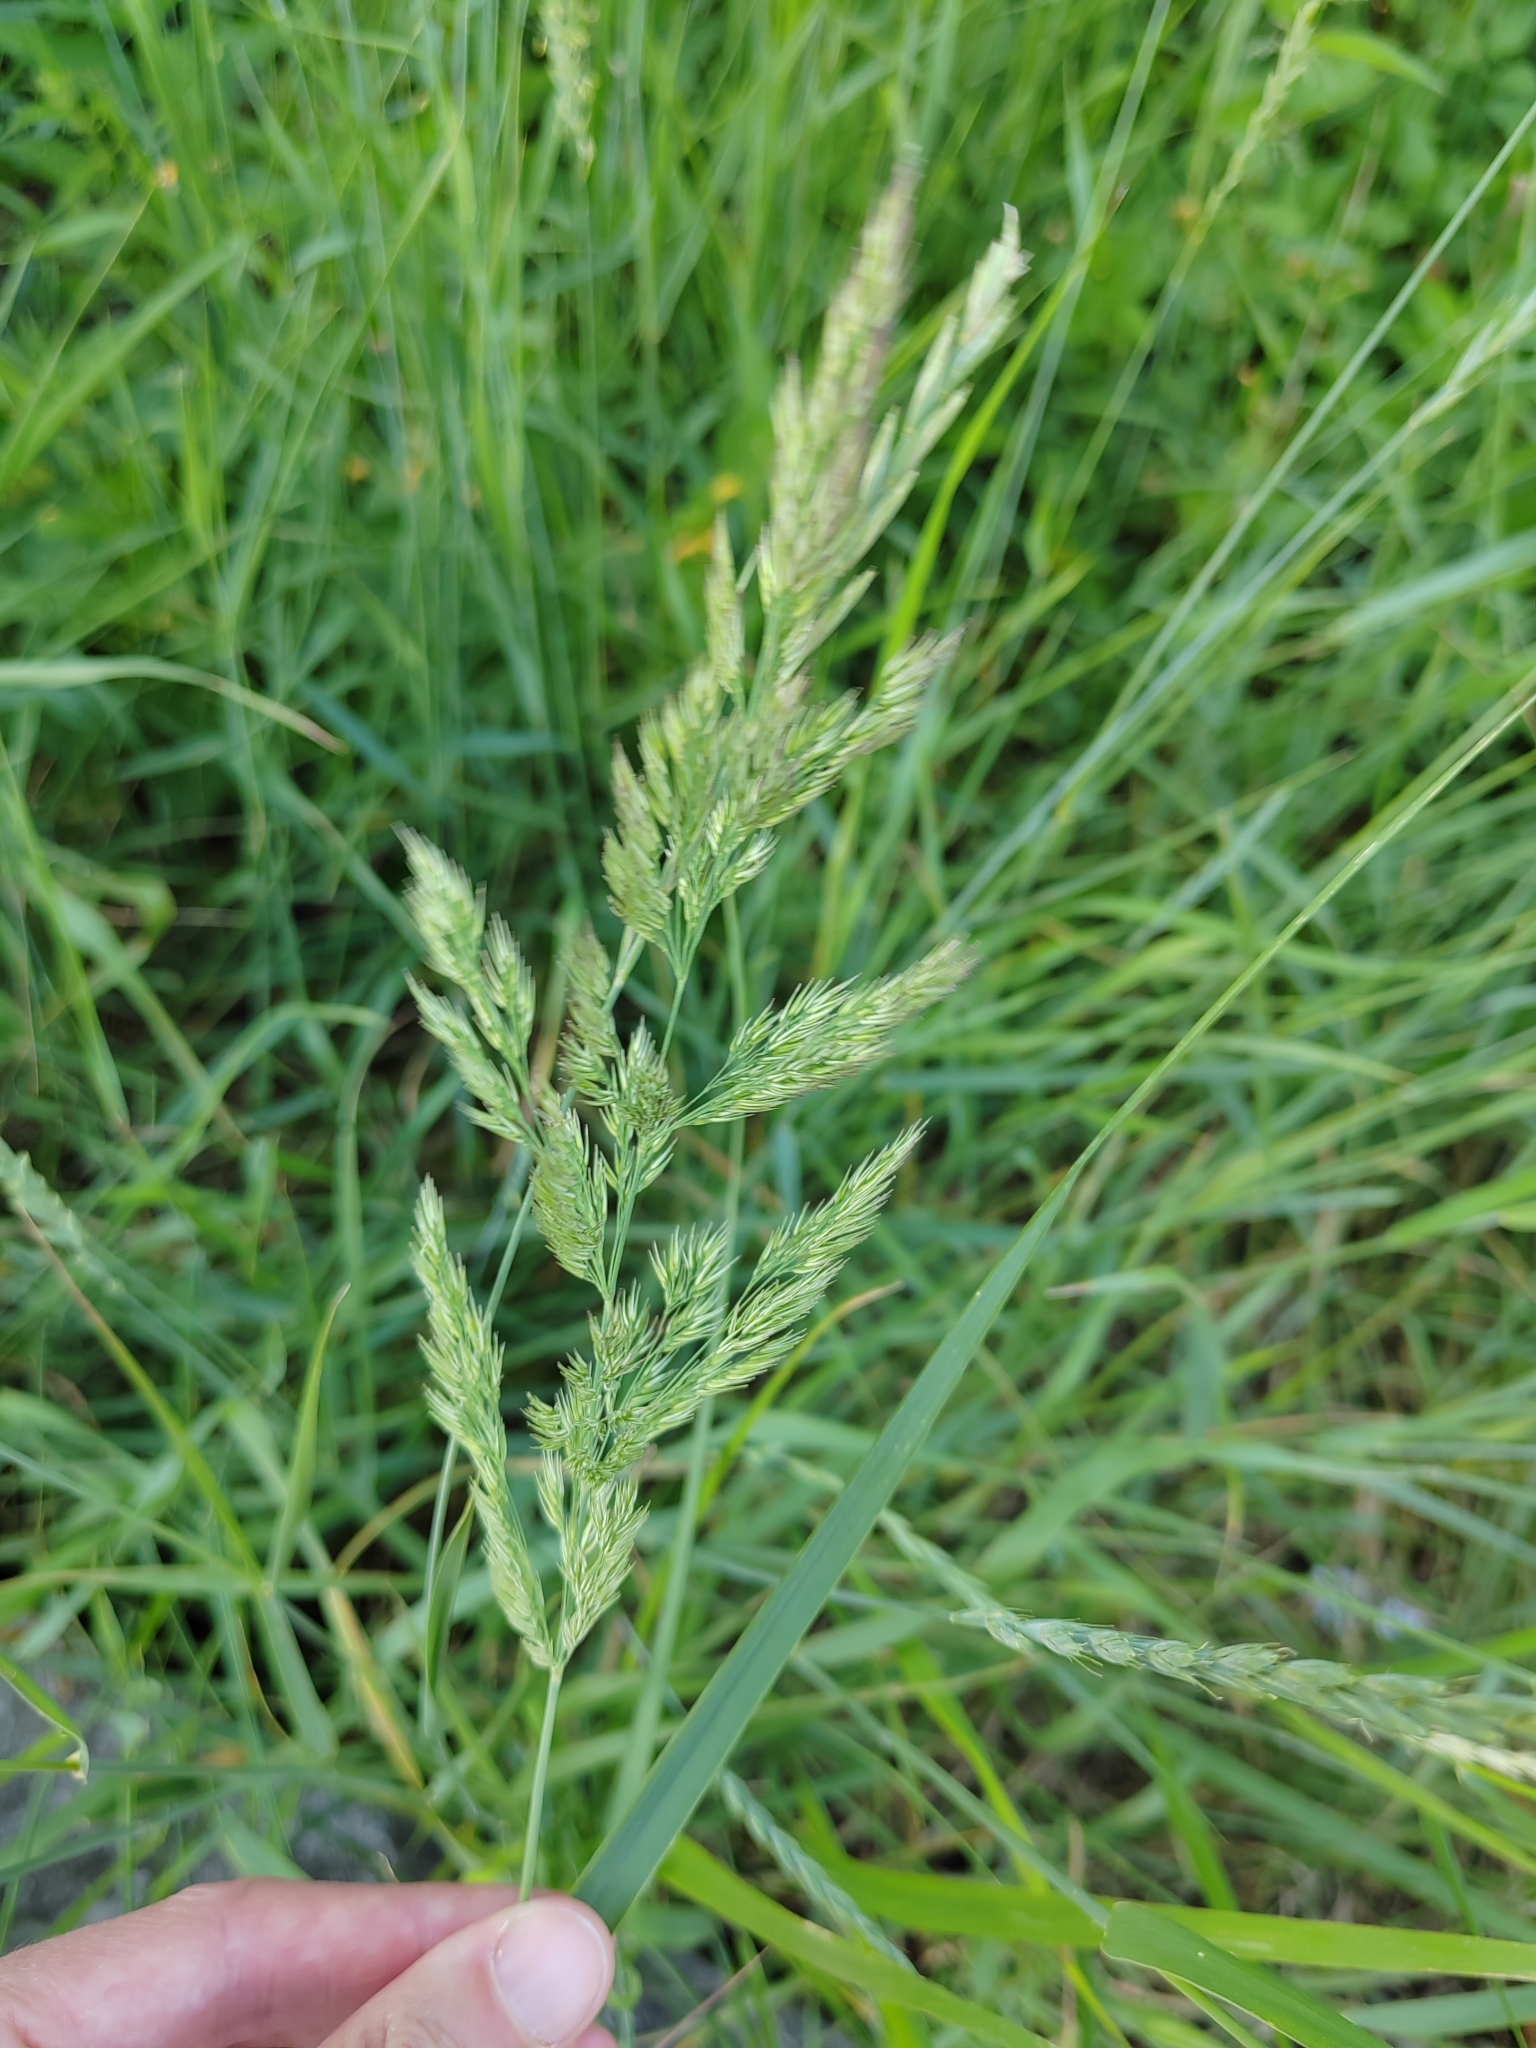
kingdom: Plantae
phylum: Tracheophyta
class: Liliopsida
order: Poales
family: Poaceae
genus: Phalaris
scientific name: Phalaris arundinacea
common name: Reed canary-grass
